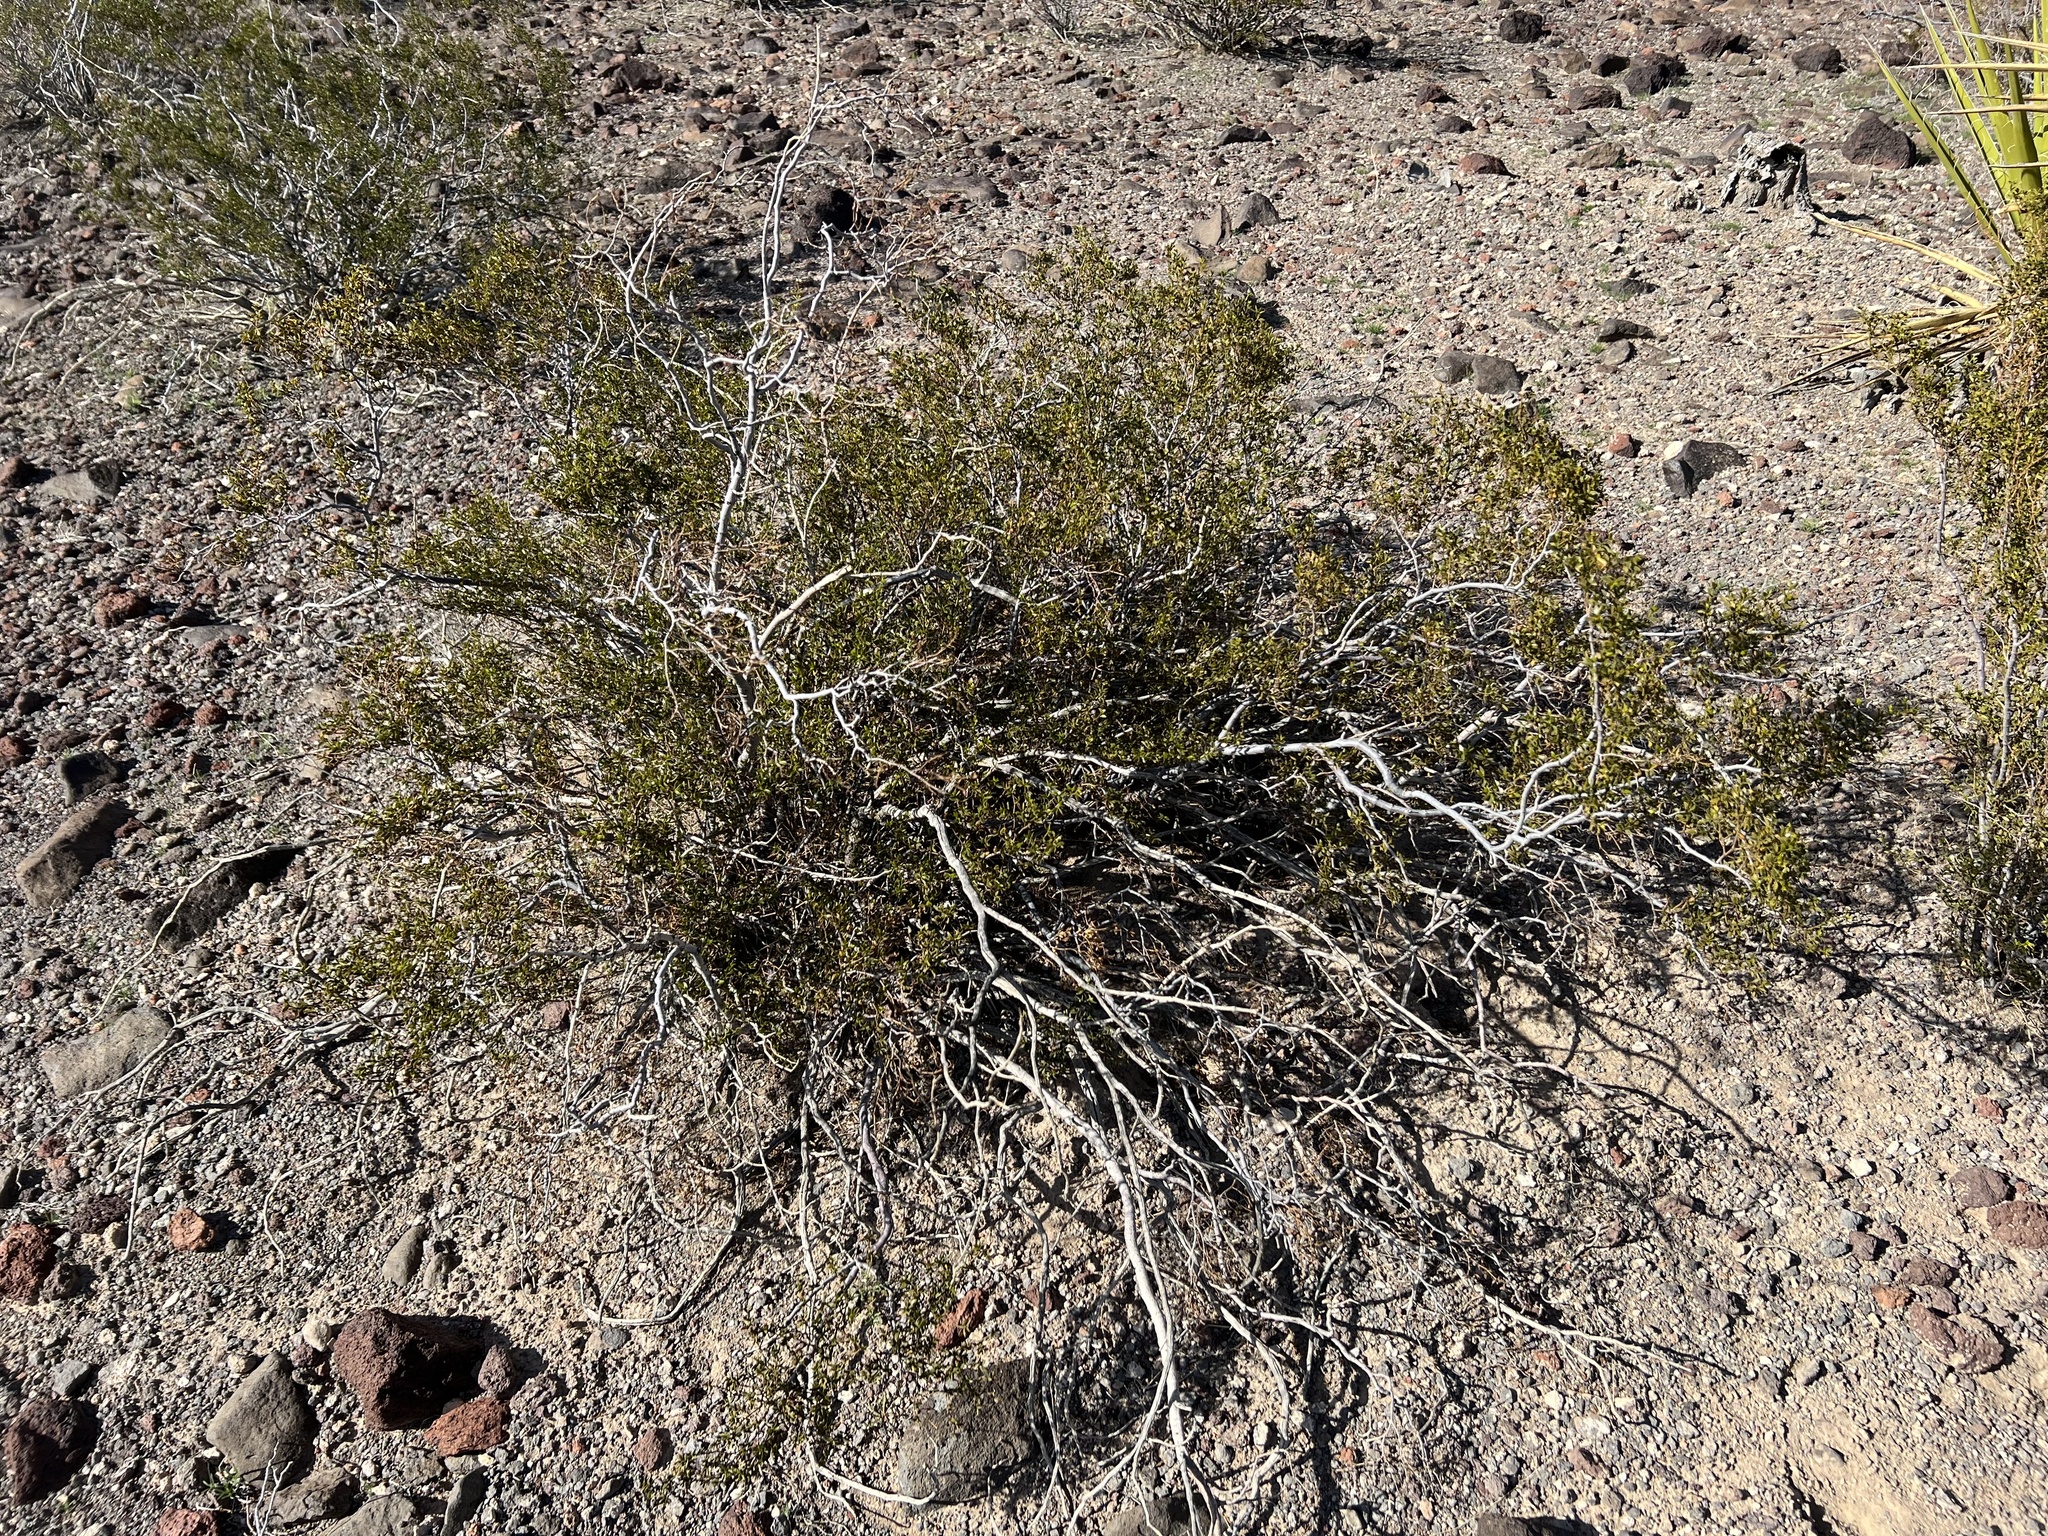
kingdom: Plantae
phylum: Tracheophyta
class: Magnoliopsida
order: Zygophyllales
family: Zygophyllaceae
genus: Larrea
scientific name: Larrea tridentata
